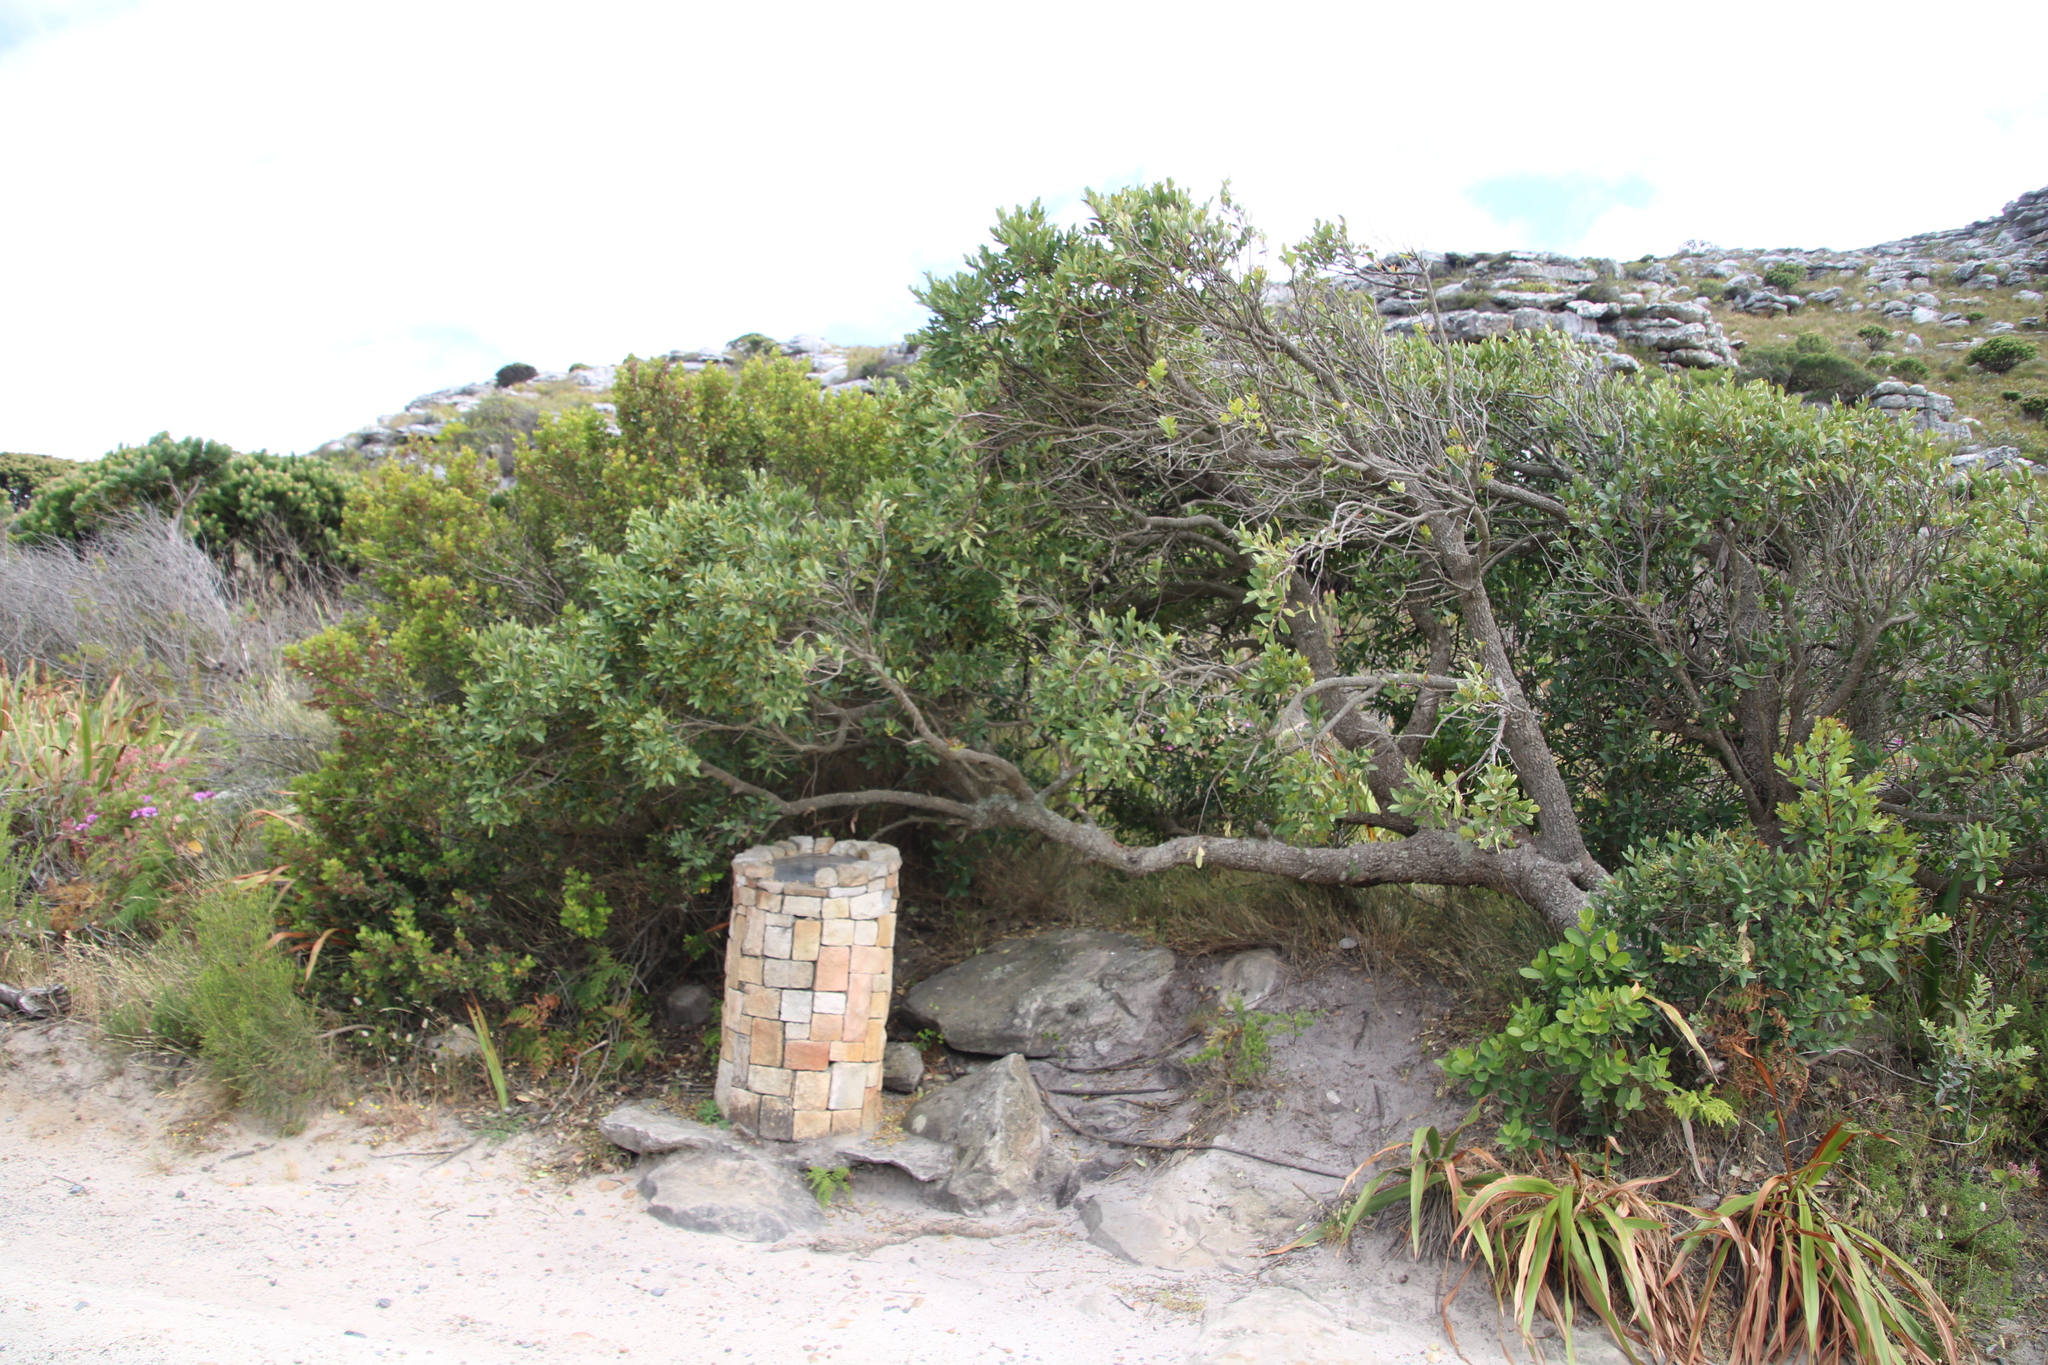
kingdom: Plantae
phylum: Tracheophyta
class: Magnoliopsida
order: Celastrales
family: Celastraceae
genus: Gymnosporia
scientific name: Gymnosporia laurina
